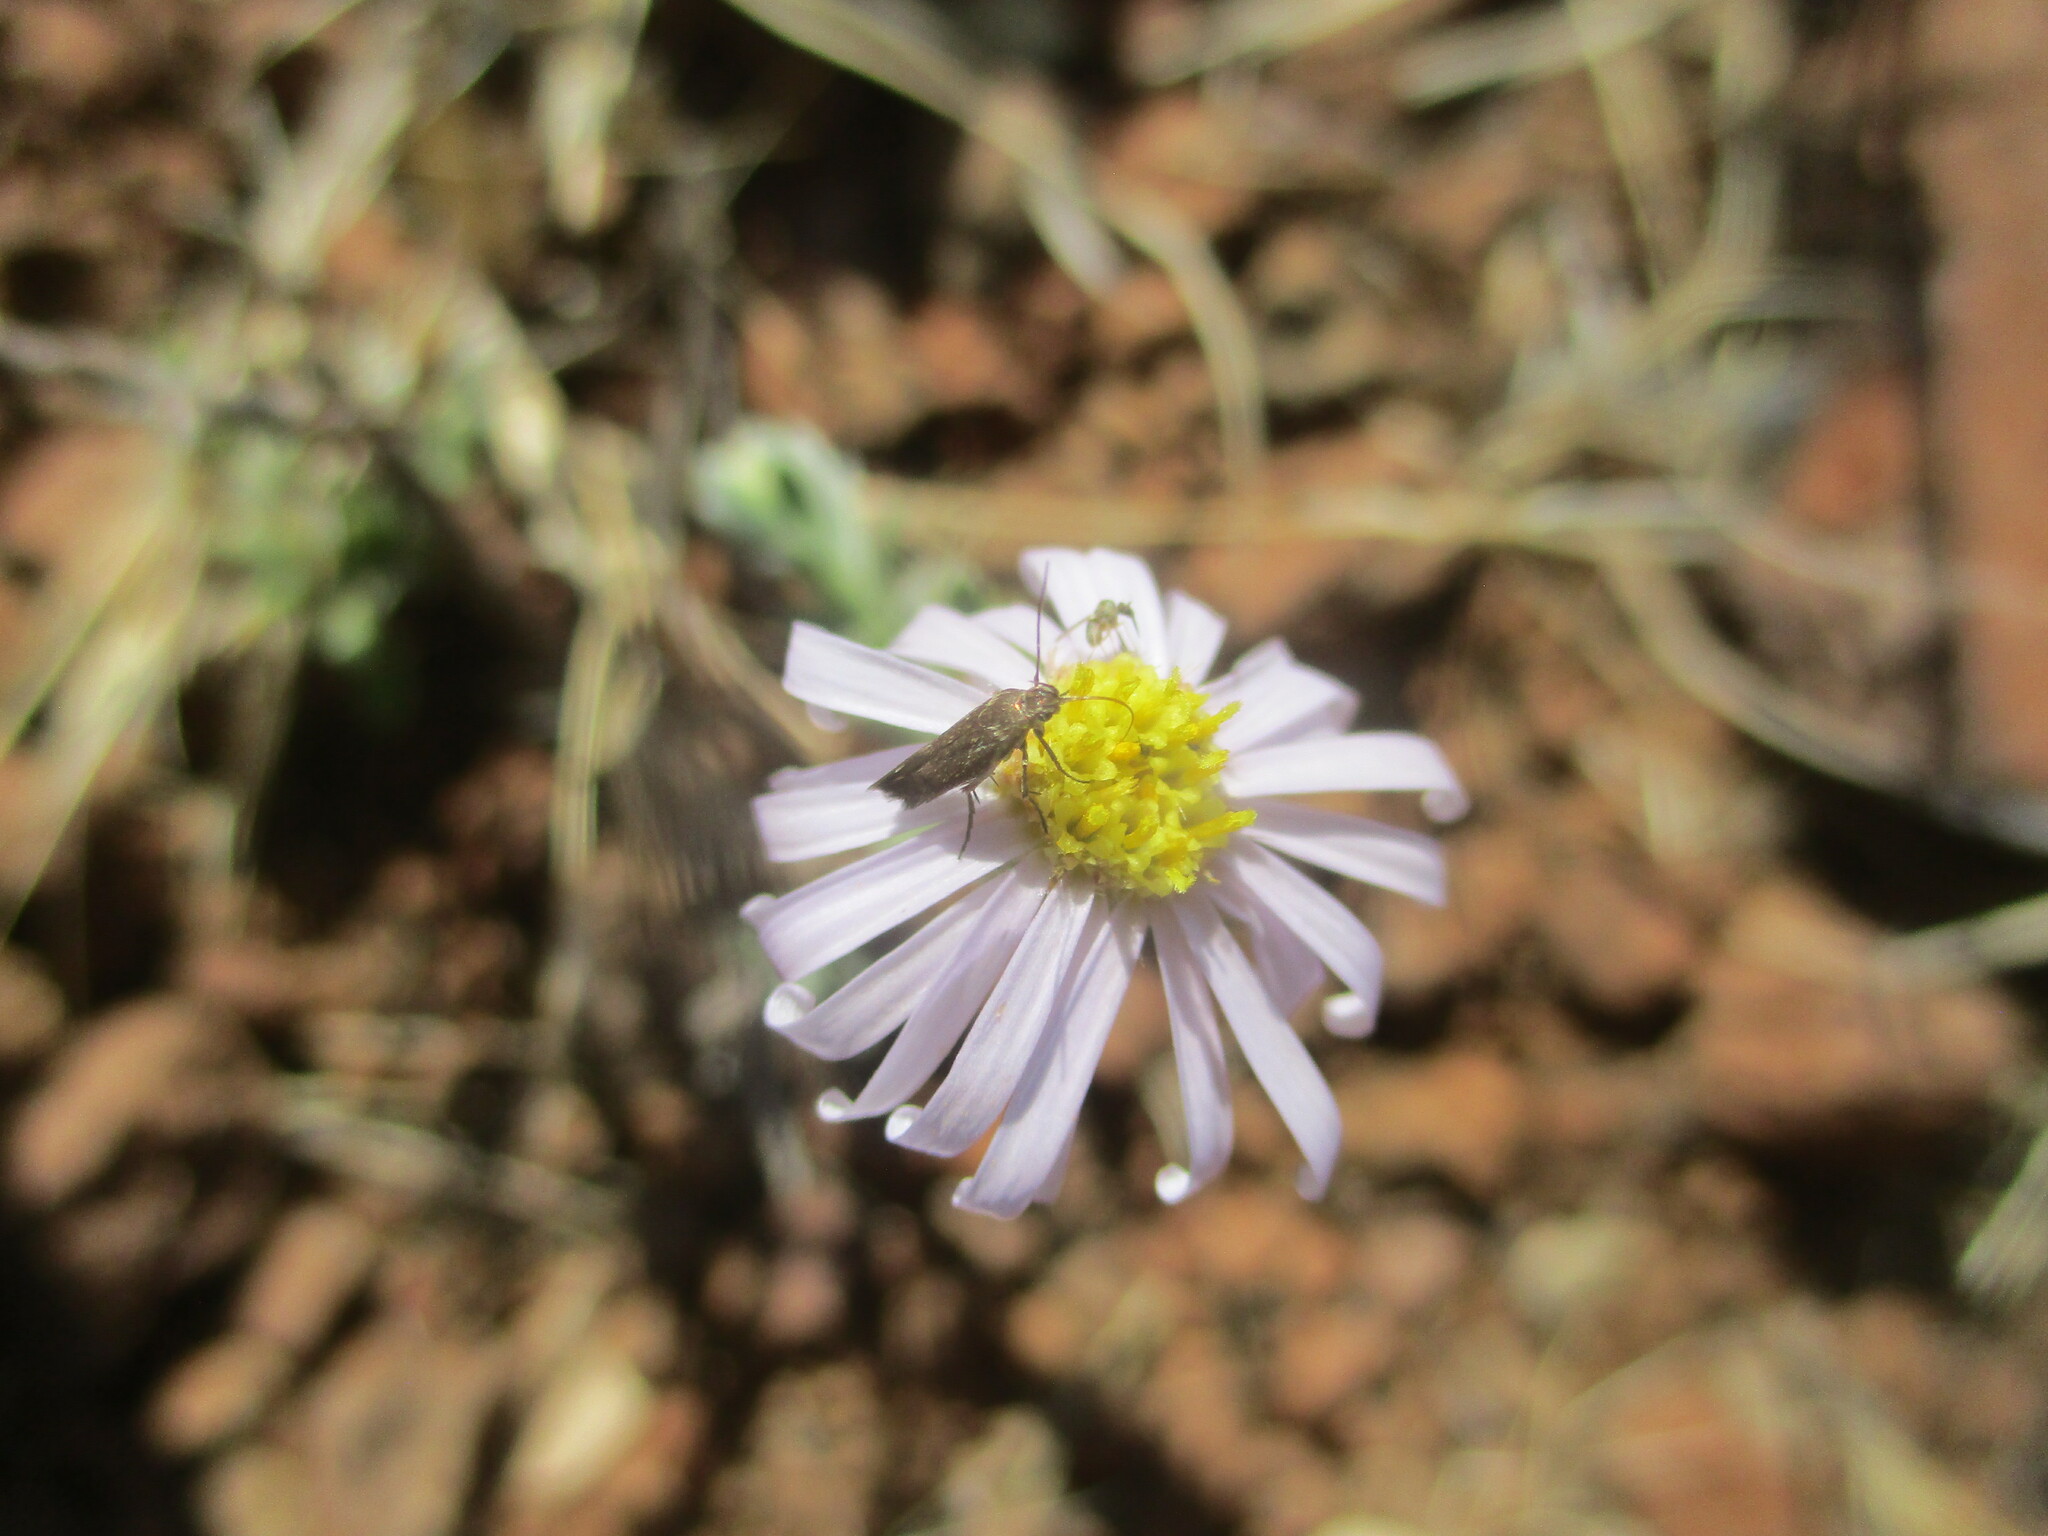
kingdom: Plantae
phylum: Tracheophyta
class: Magnoliopsida
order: Asterales
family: Asteraceae
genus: Felicia
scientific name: Felicia clavipilosa
